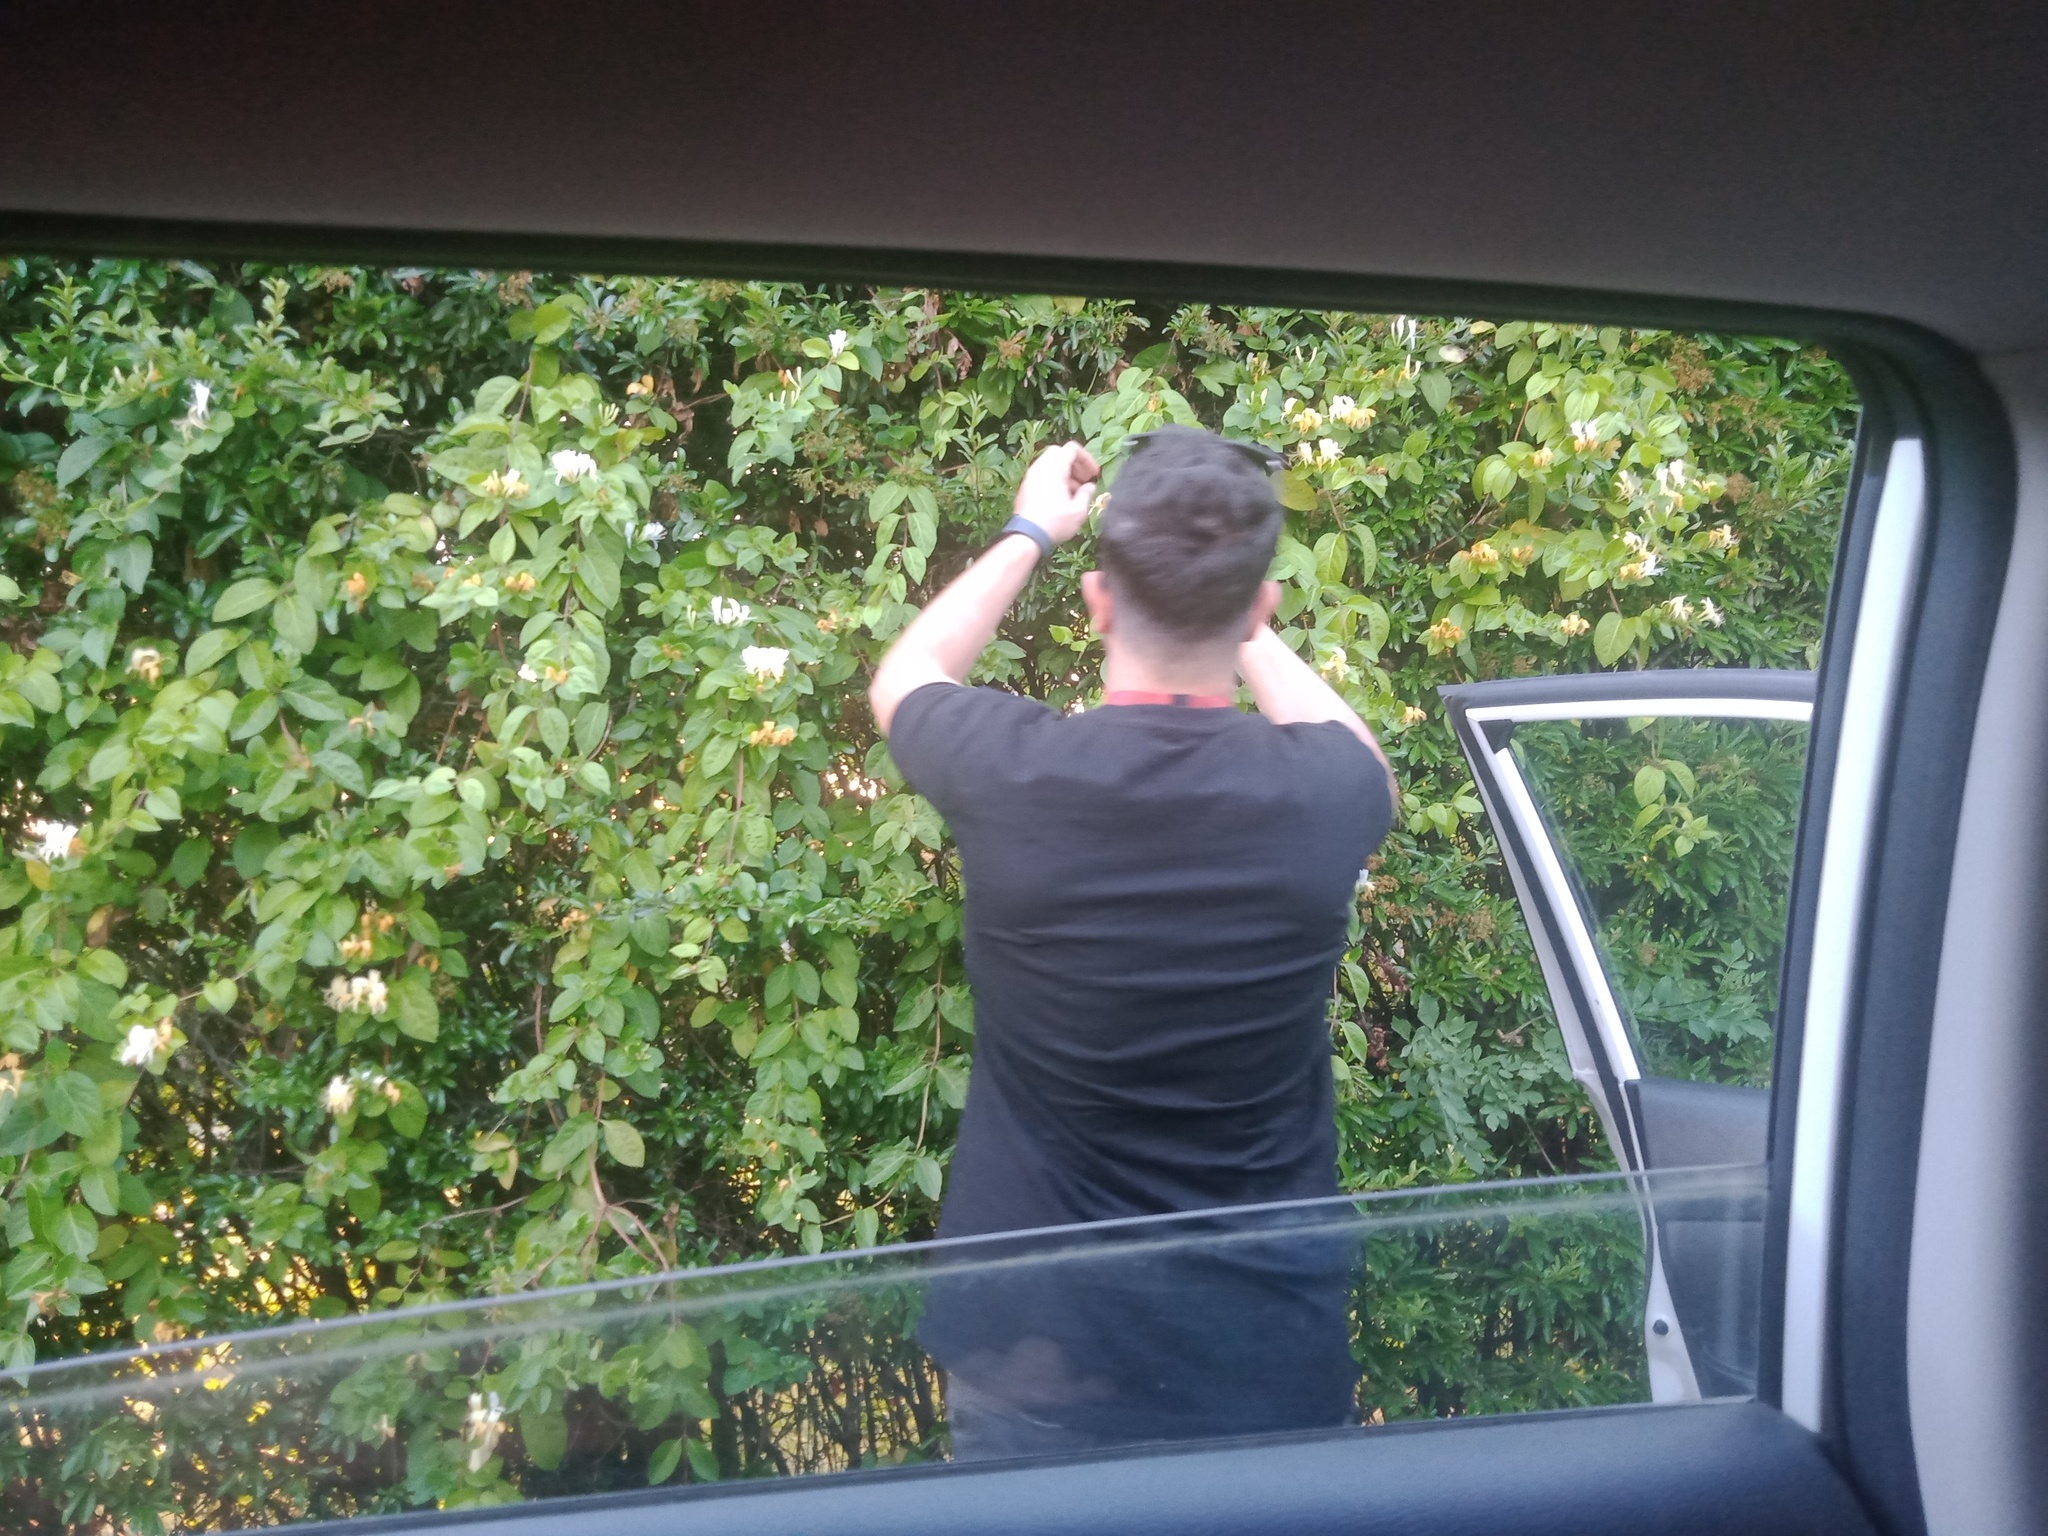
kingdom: Plantae
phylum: Tracheophyta
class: Magnoliopsida
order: Dipsacales
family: Caprifoliaceae
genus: Lonicera
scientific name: Lonicera japonica
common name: Japanese honeysuckle
